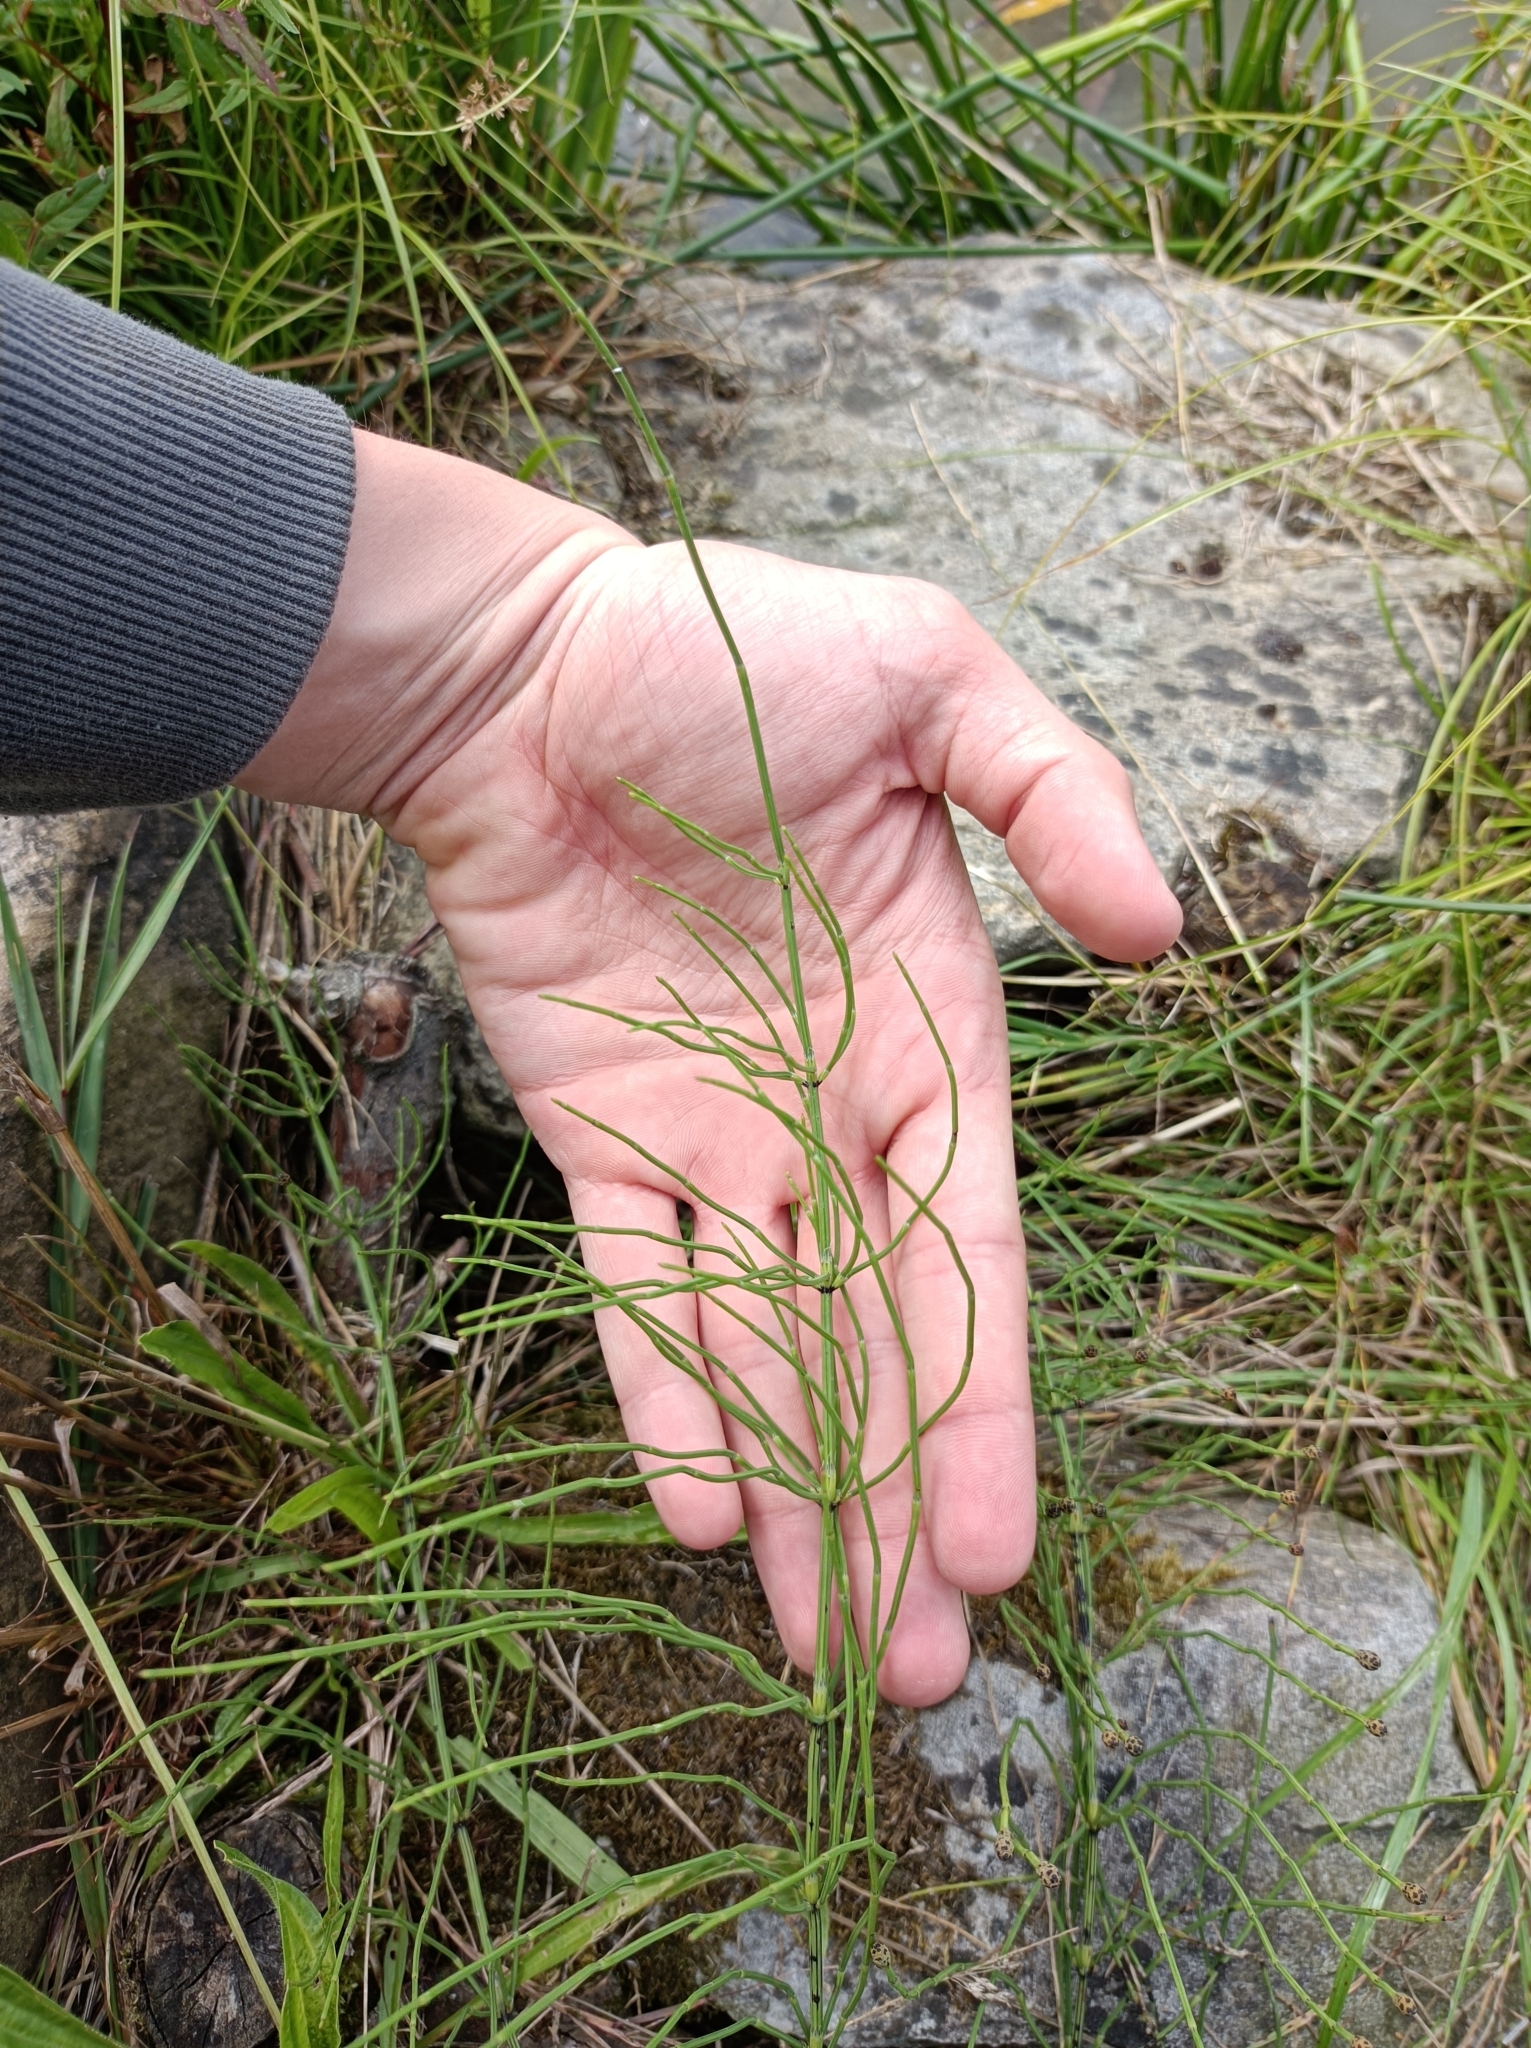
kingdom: Plantae
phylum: Tracheophyta
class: Polypodiopsida
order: Equisetales
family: Equisetaceae
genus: Equisetum
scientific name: Equisetum palustre
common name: Marsh horsetail
